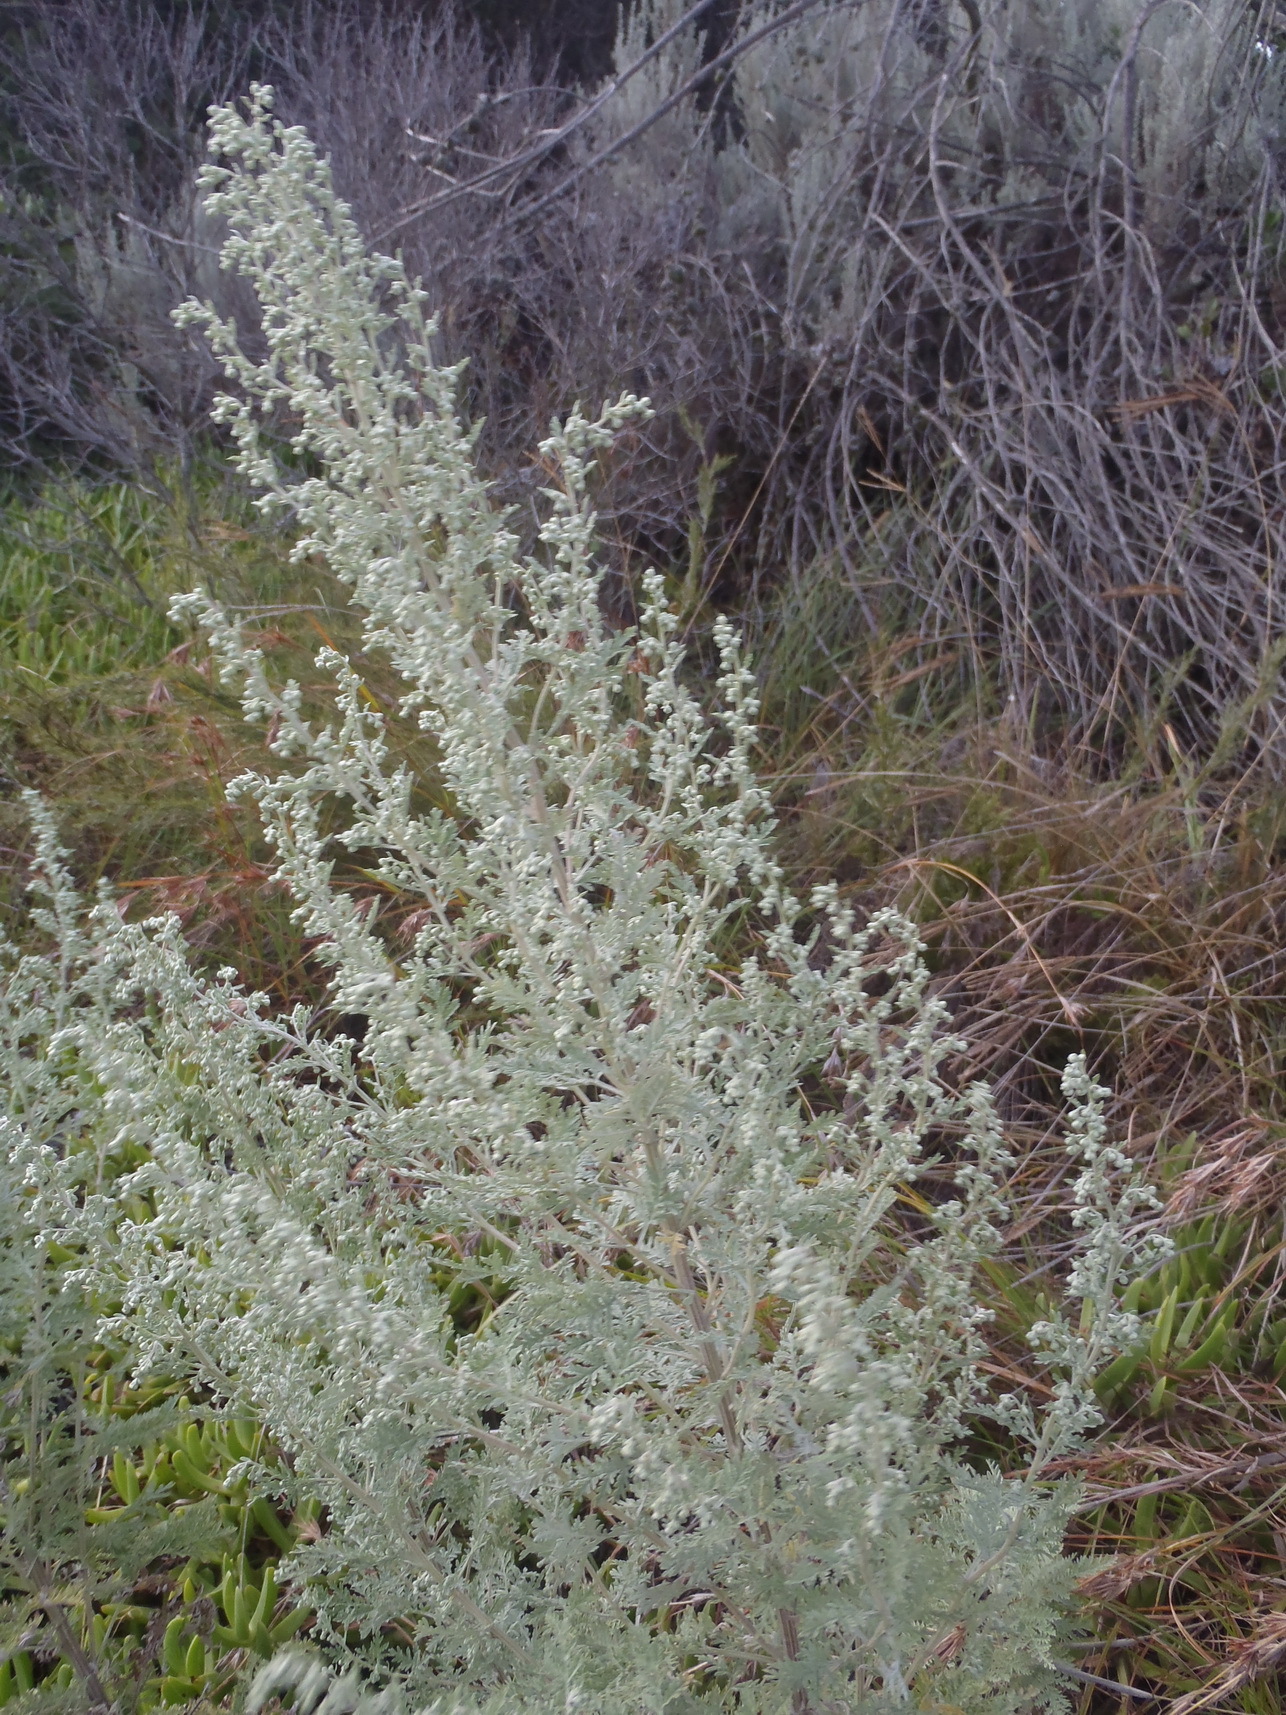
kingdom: Plantae
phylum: Tracheophyta
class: Magnoliopsida
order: Asterales
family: Asteraceae
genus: Artemisia
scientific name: Artemisia afra
